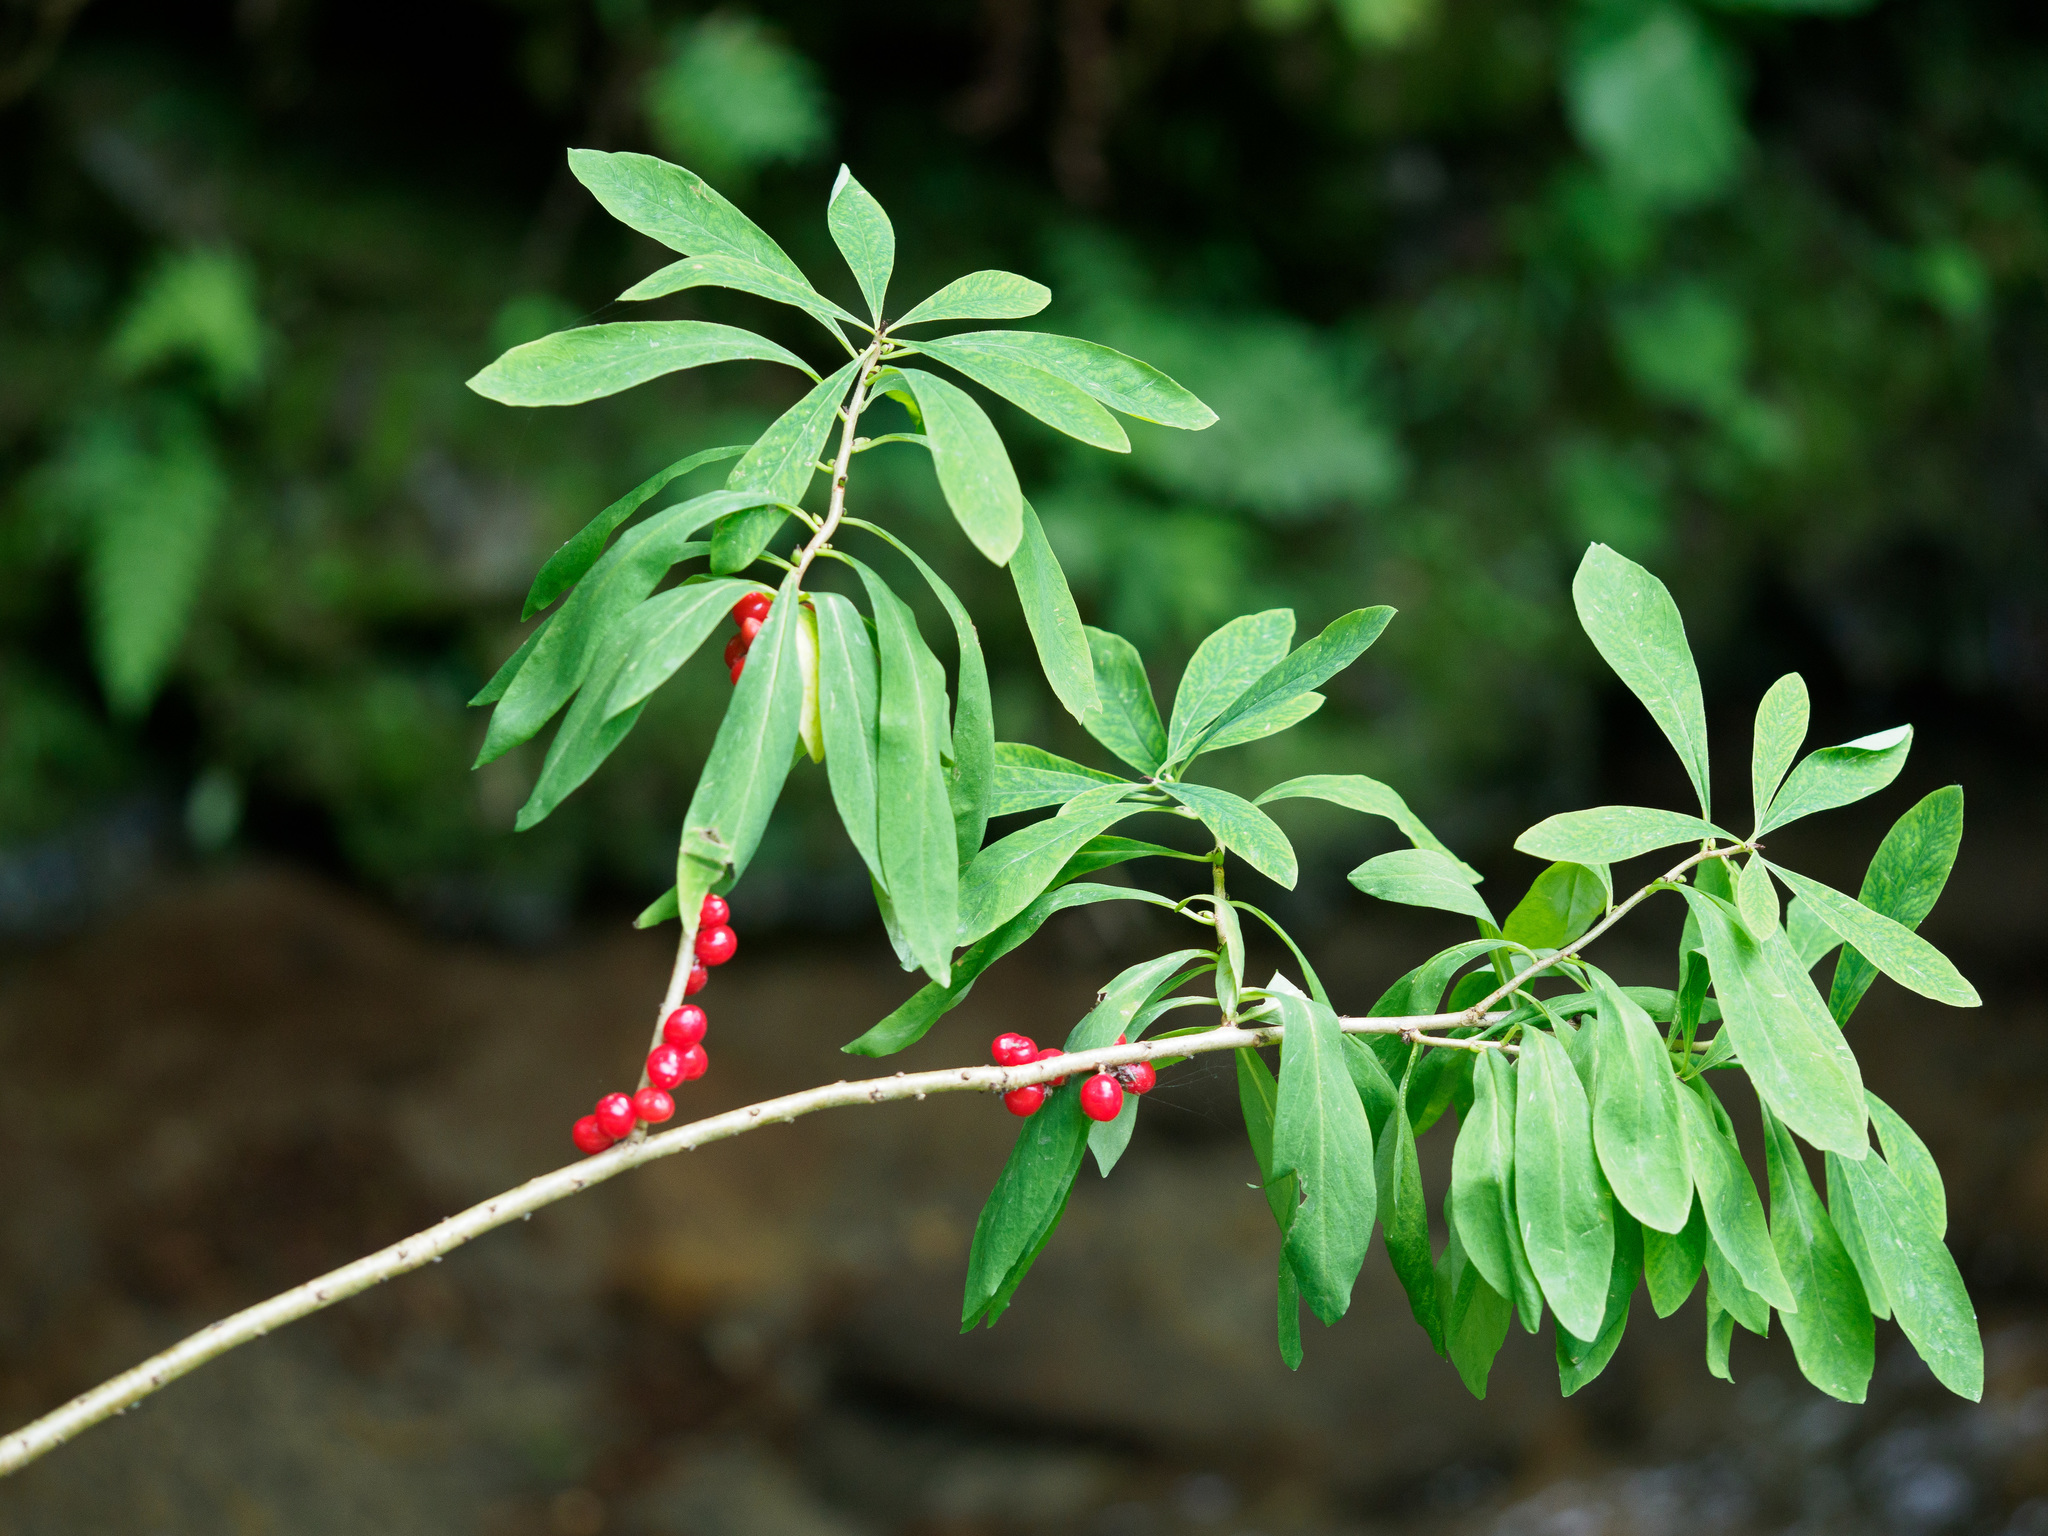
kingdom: Plantae
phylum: Tracheophyta
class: Magnoliopsida
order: Malvales
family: Thymelaeaceae
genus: Daphne
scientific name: Daphne mezereum
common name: Mezereon
